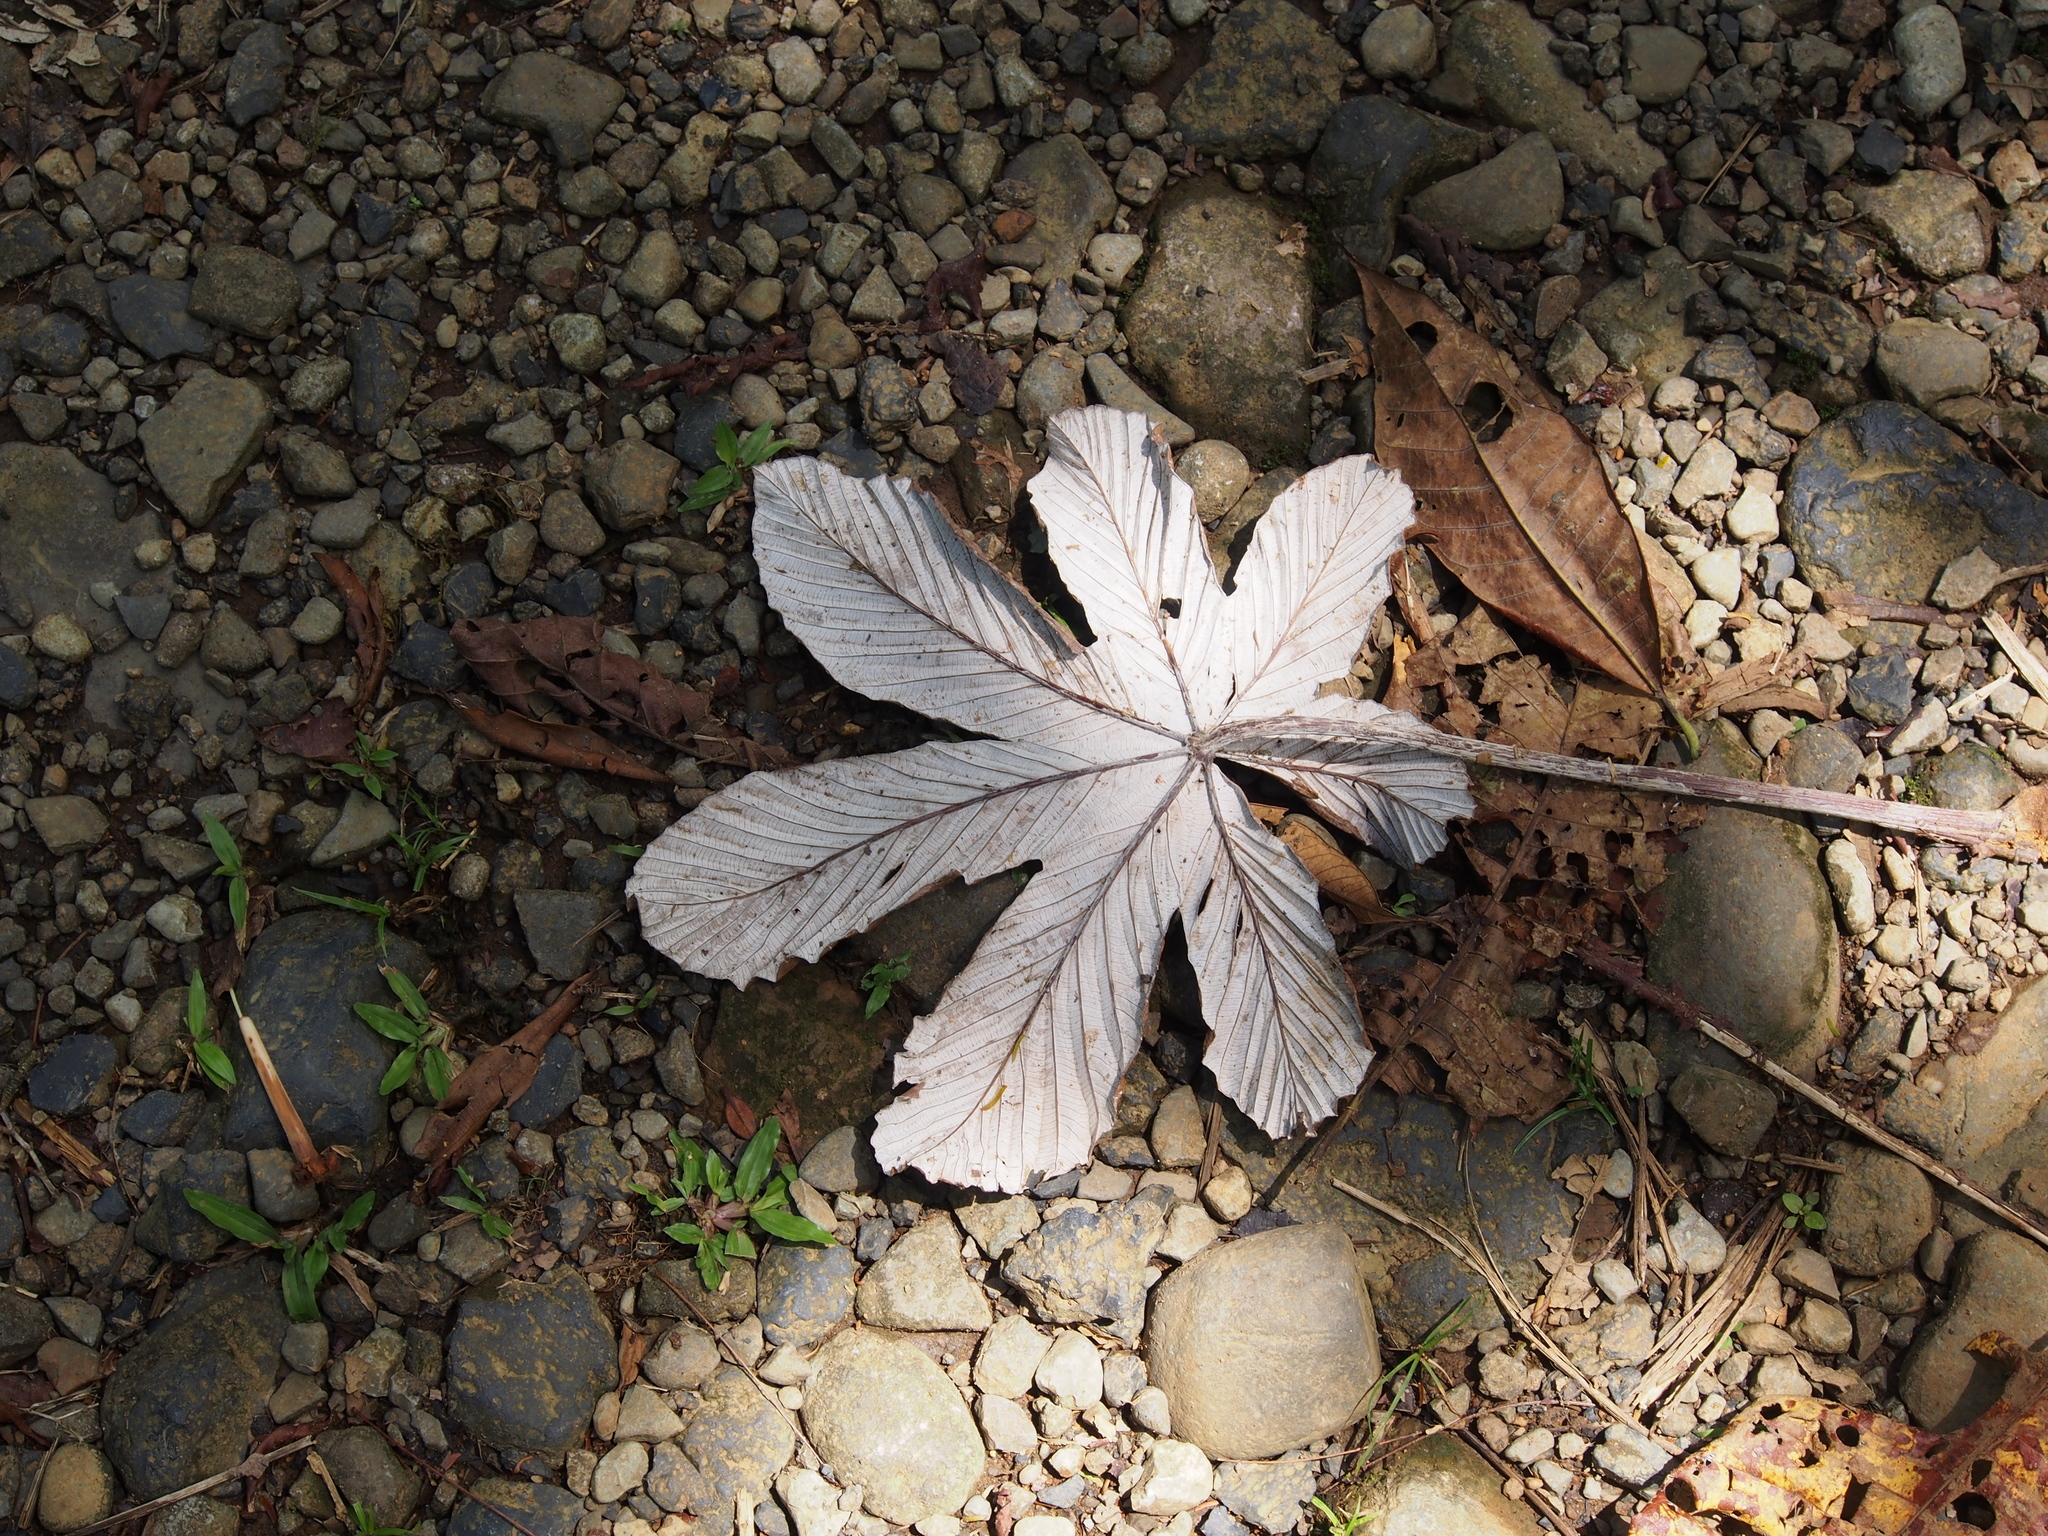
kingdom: Plantae
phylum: Tracheophyta
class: Magnoliopsida
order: Rosales
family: Urticaceae
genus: Cecropia
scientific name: Cecropia insignis
